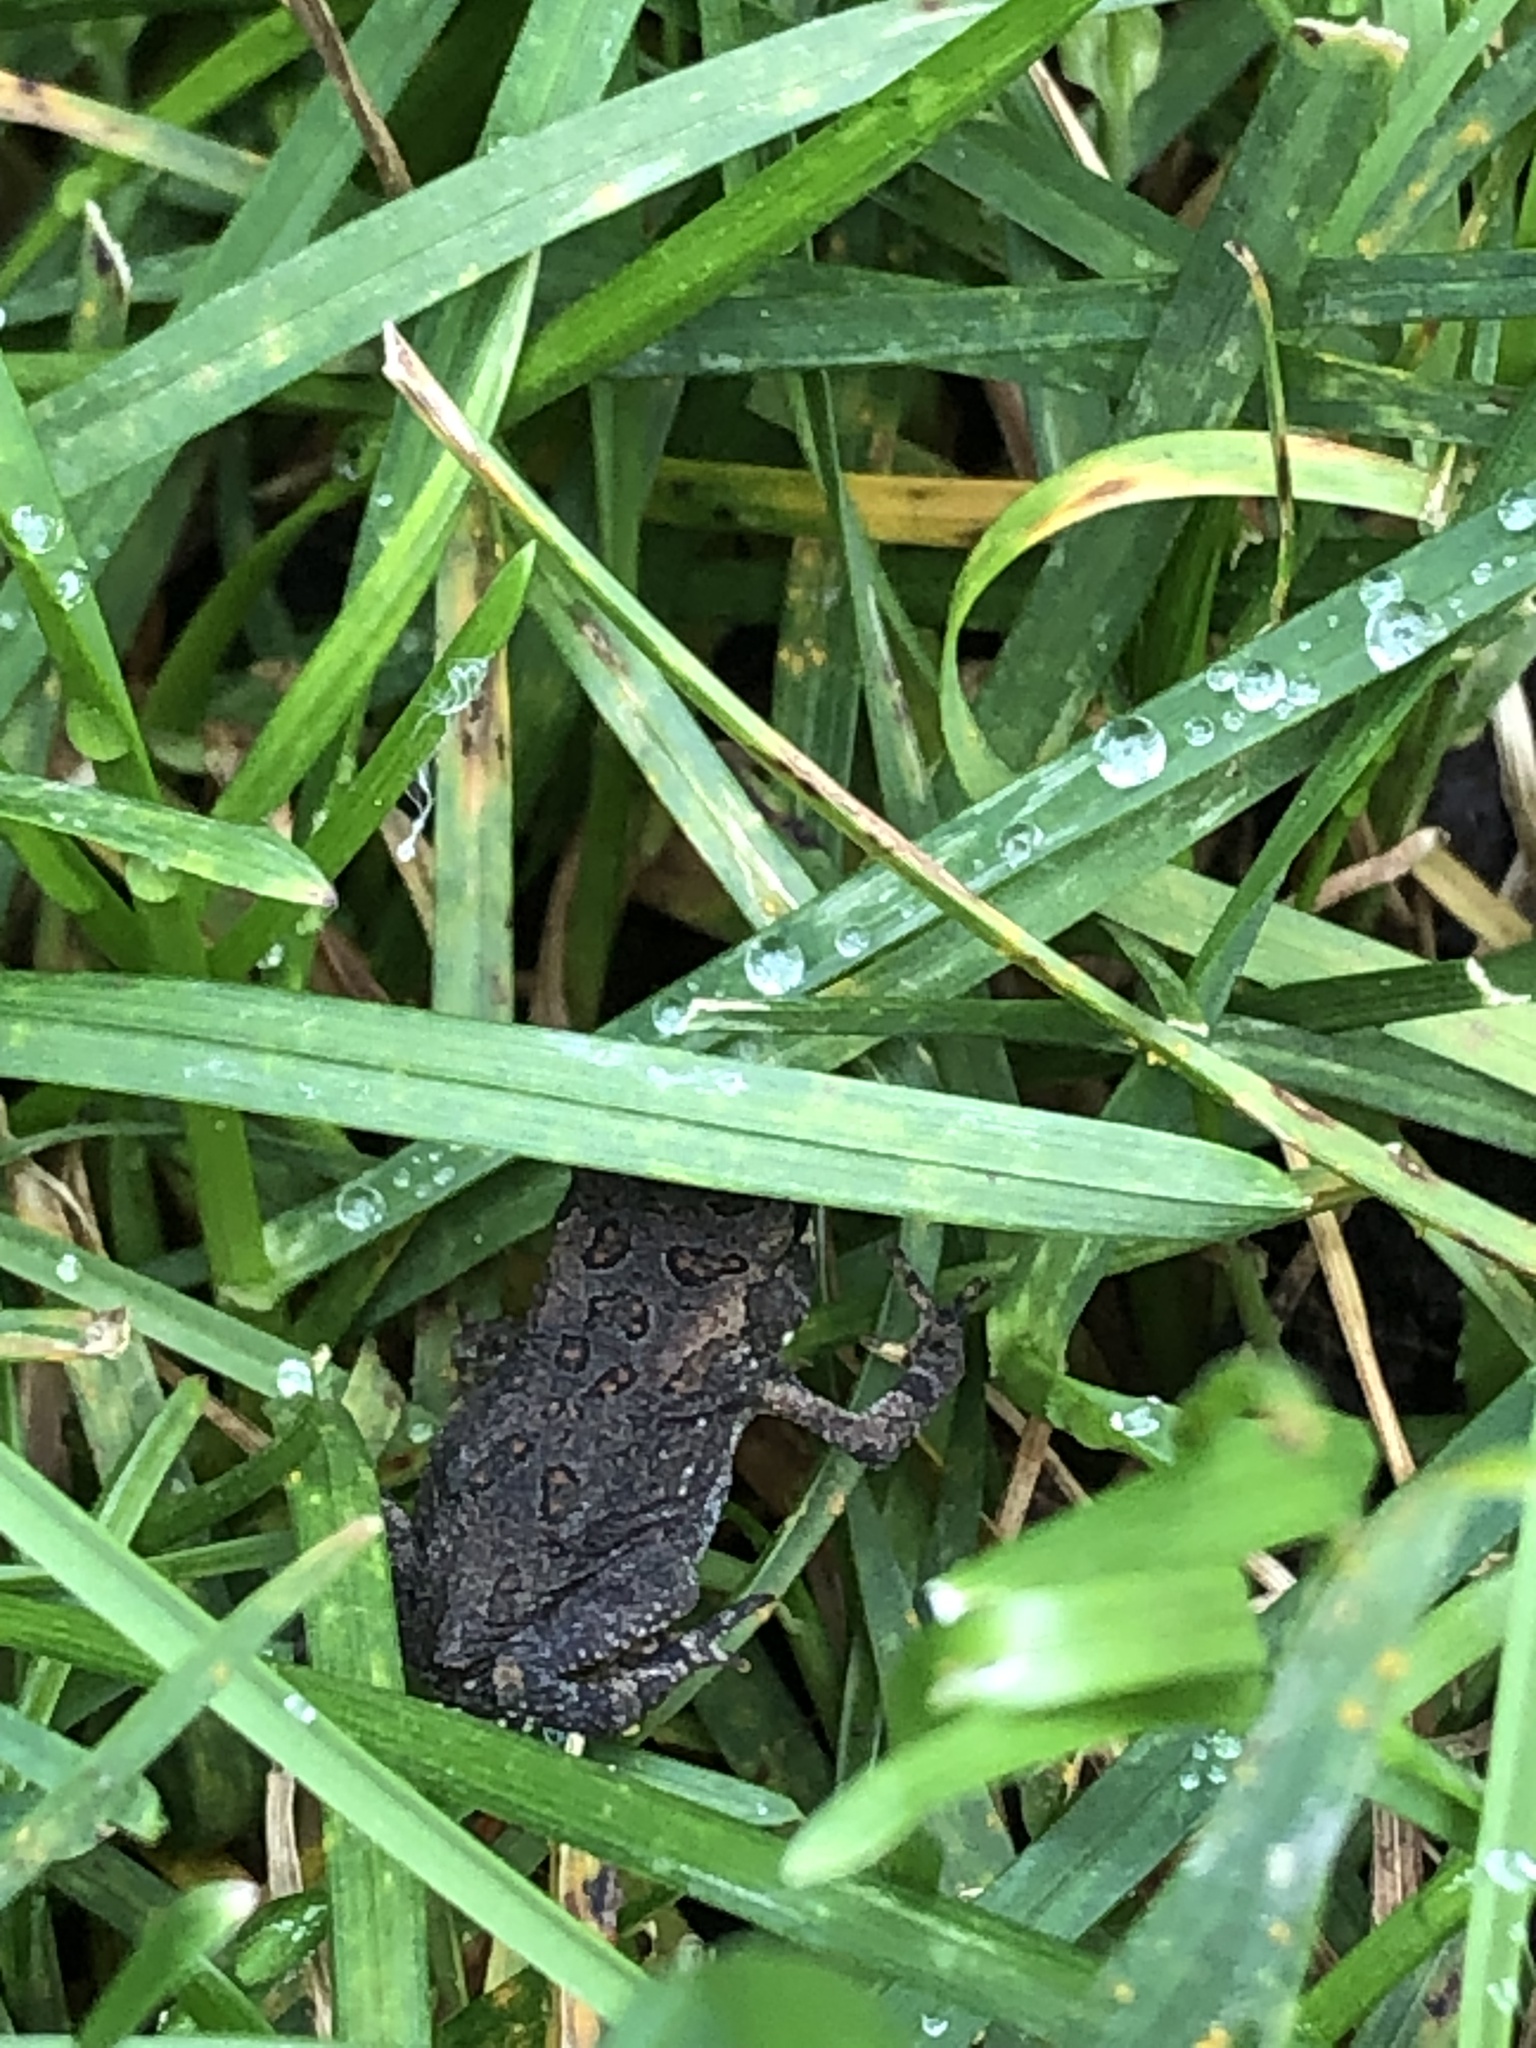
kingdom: Animalia
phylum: Chordata
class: Amphibia
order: Anura
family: Bufonidae
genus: Anaxyrus
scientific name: Anaxyrus americanus
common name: American toad
